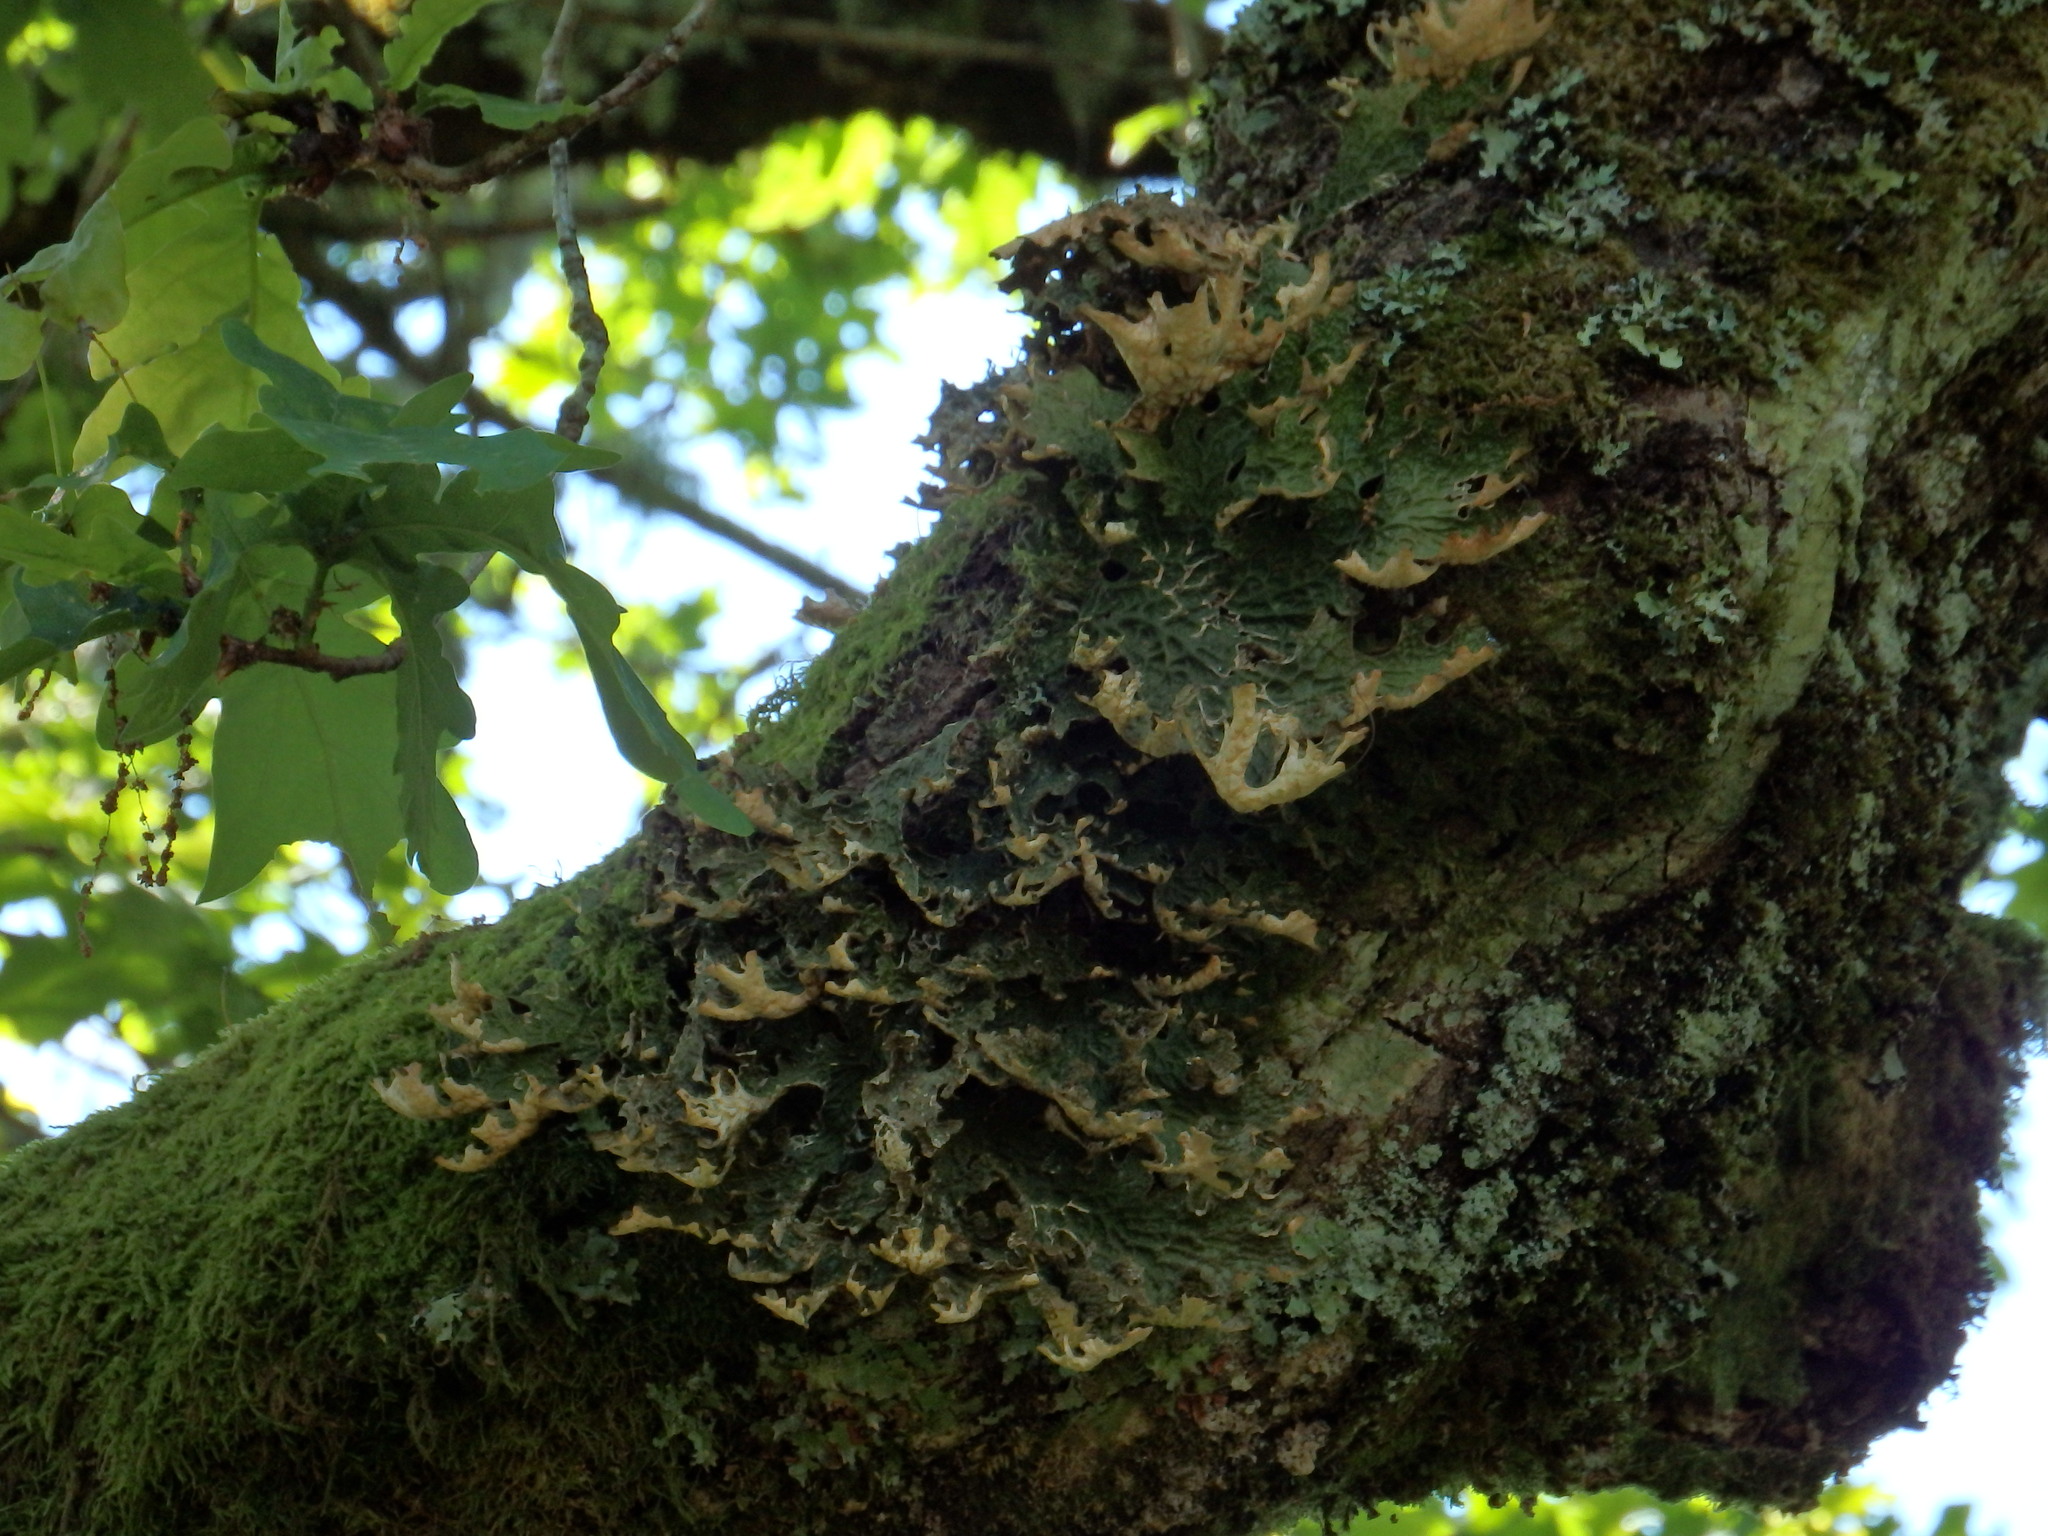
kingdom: Fungi
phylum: Ascomycota
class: Lecanoromycetes
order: Peltigerales
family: Lobariaceae
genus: Lobaria
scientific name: Lobaria pulmonaria
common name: Lungwort
